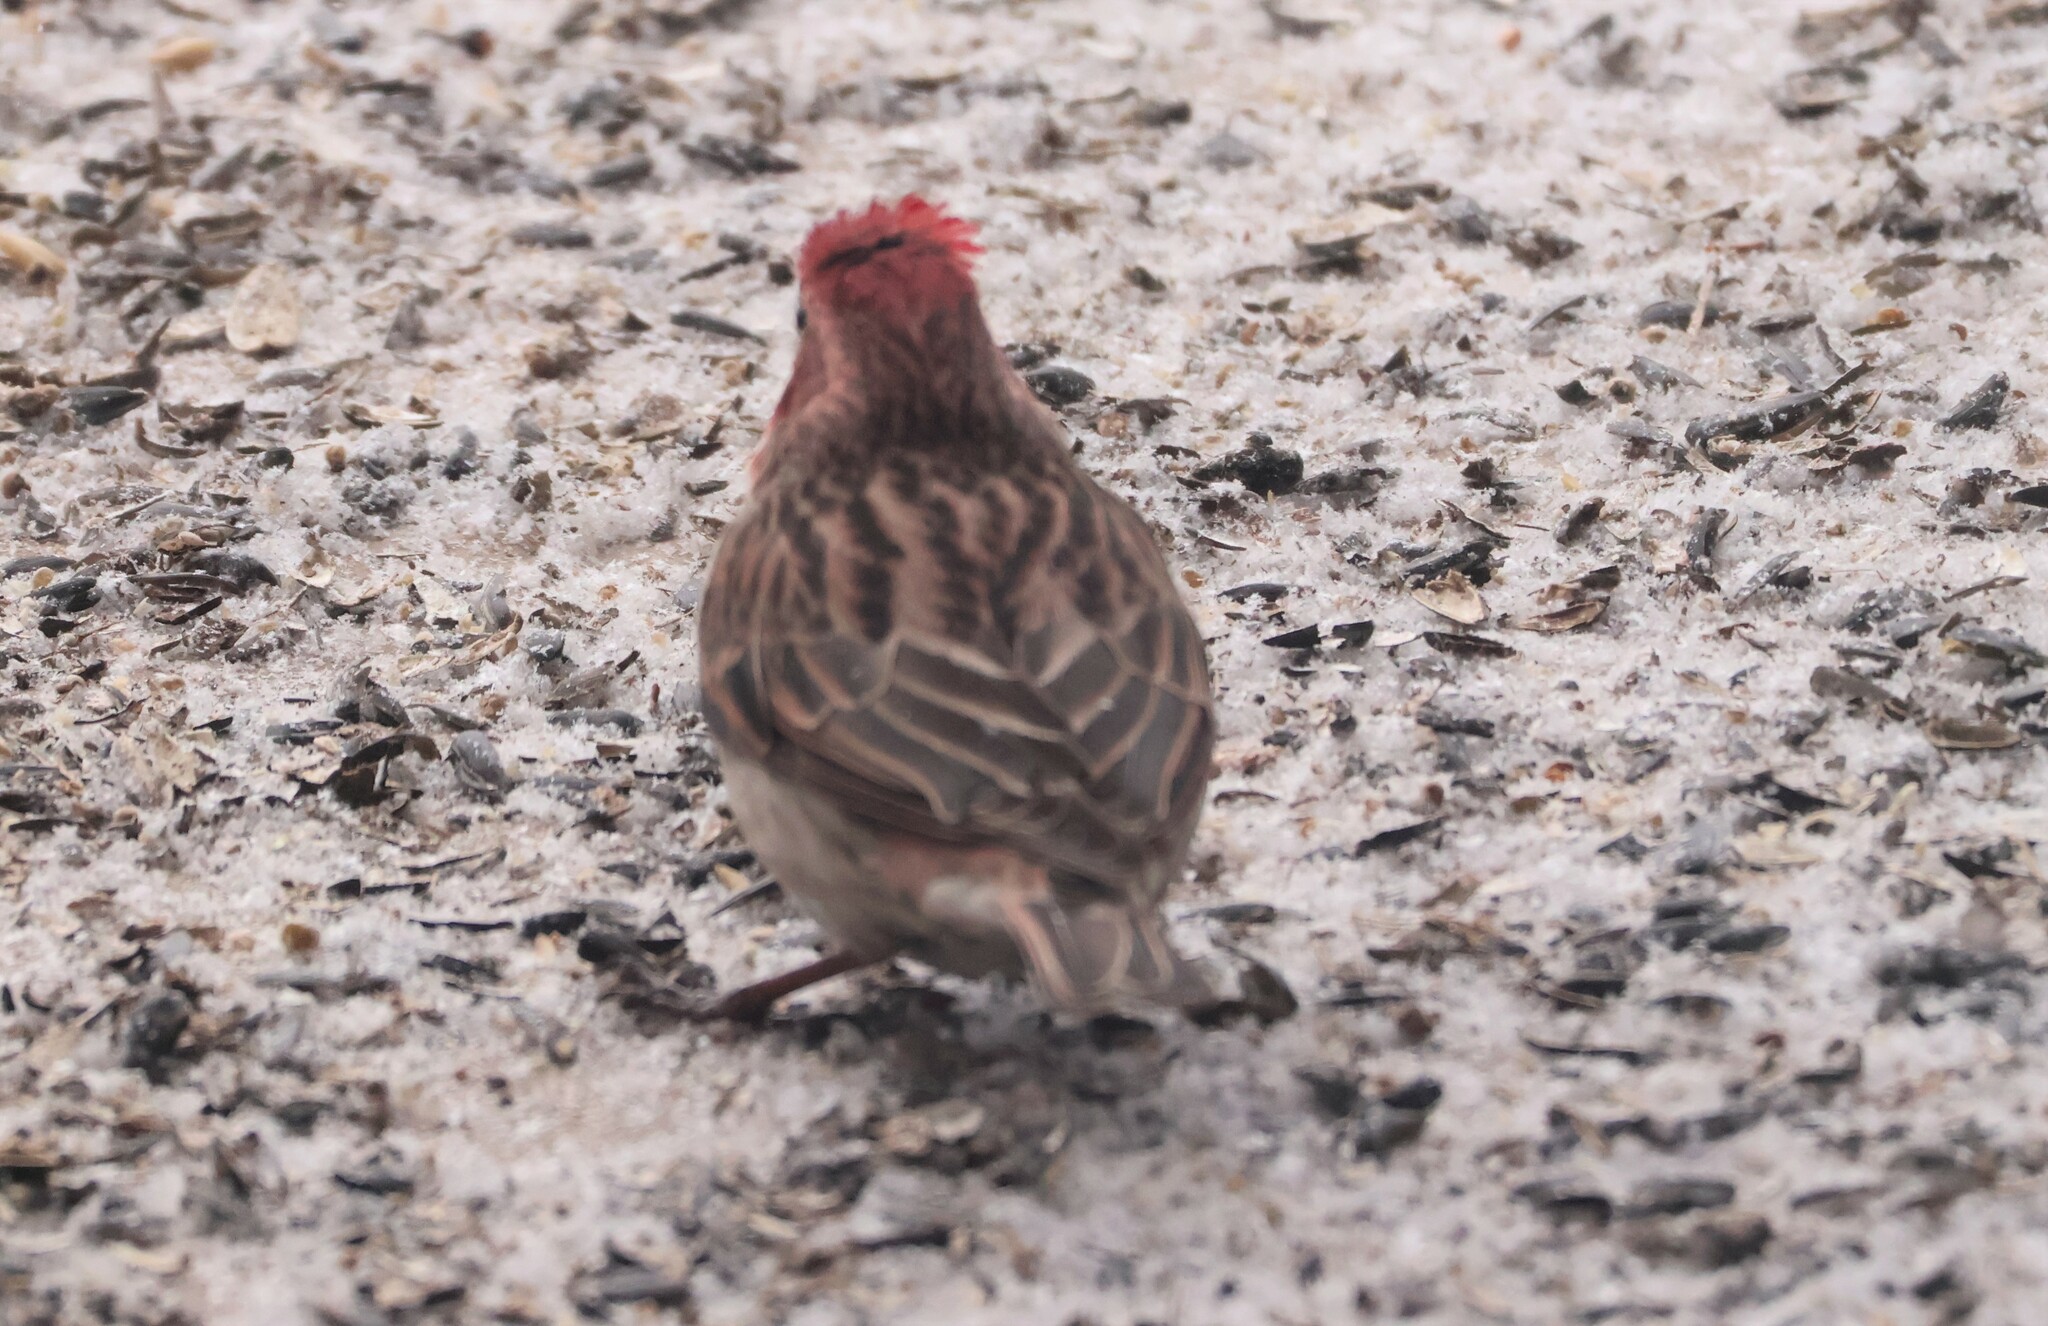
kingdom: Animalia
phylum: Chordata
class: Aves
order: Passeriformes
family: Fringillidae
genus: Haemorhous
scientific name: Haemorhous cassinii
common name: Cassin's finch
